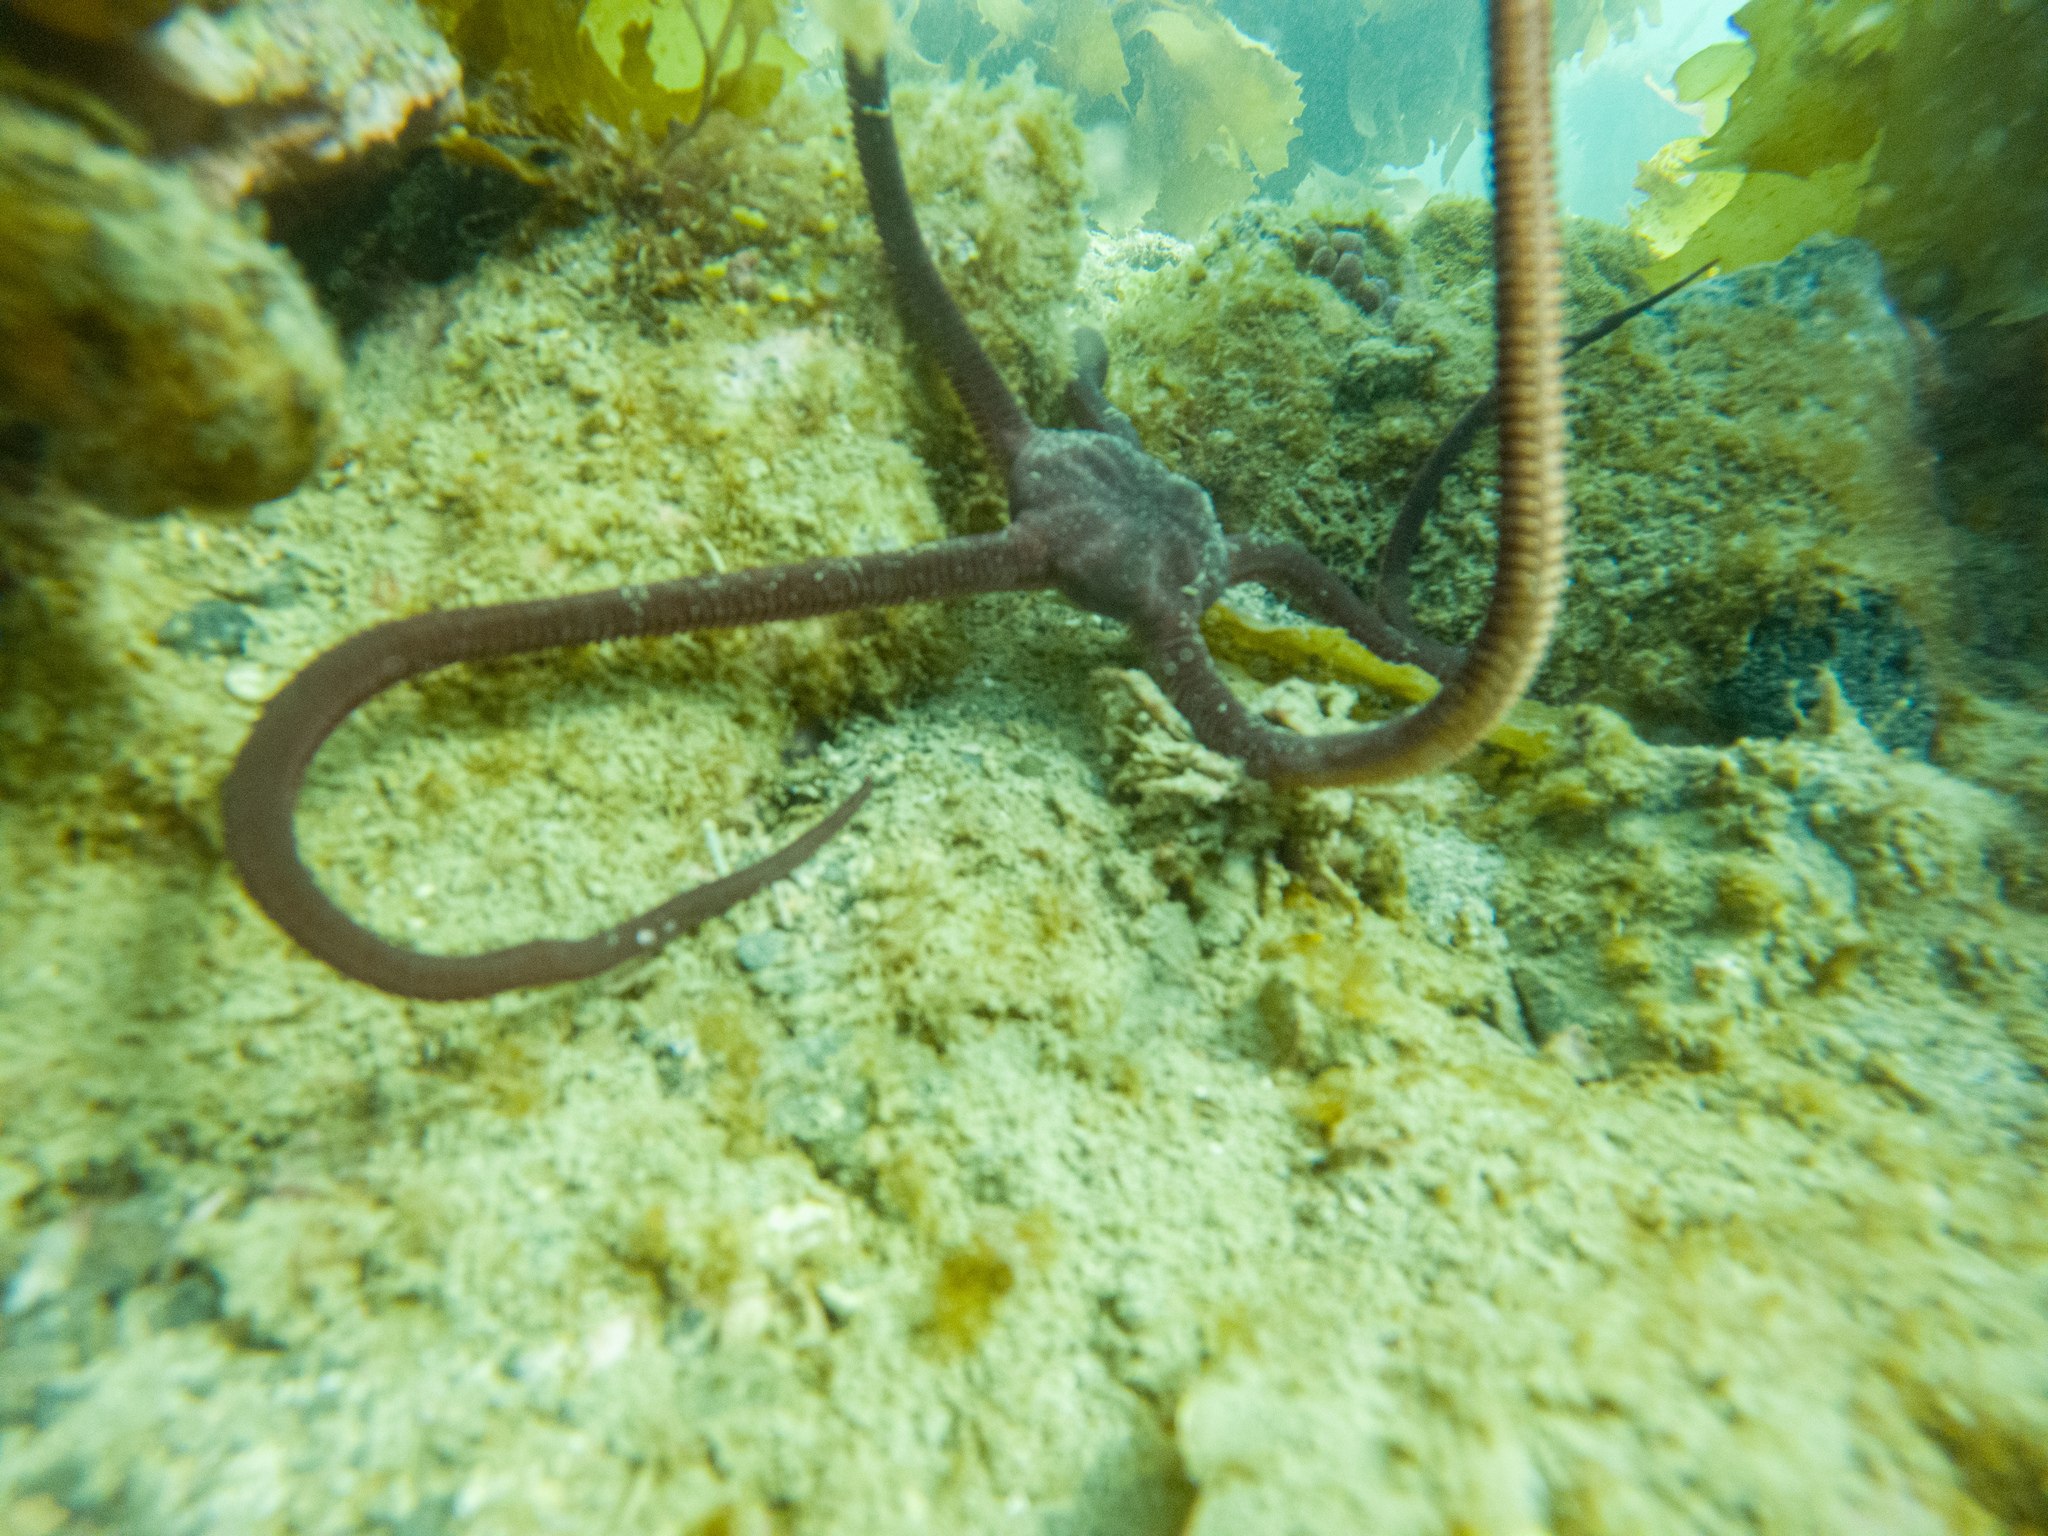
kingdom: Animalia
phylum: Echinodermata
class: Ophiuroidea
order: Ophiacanthida
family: Ophiodermatidae
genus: Ophiopsammus
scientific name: Ophiopsammus maculata
